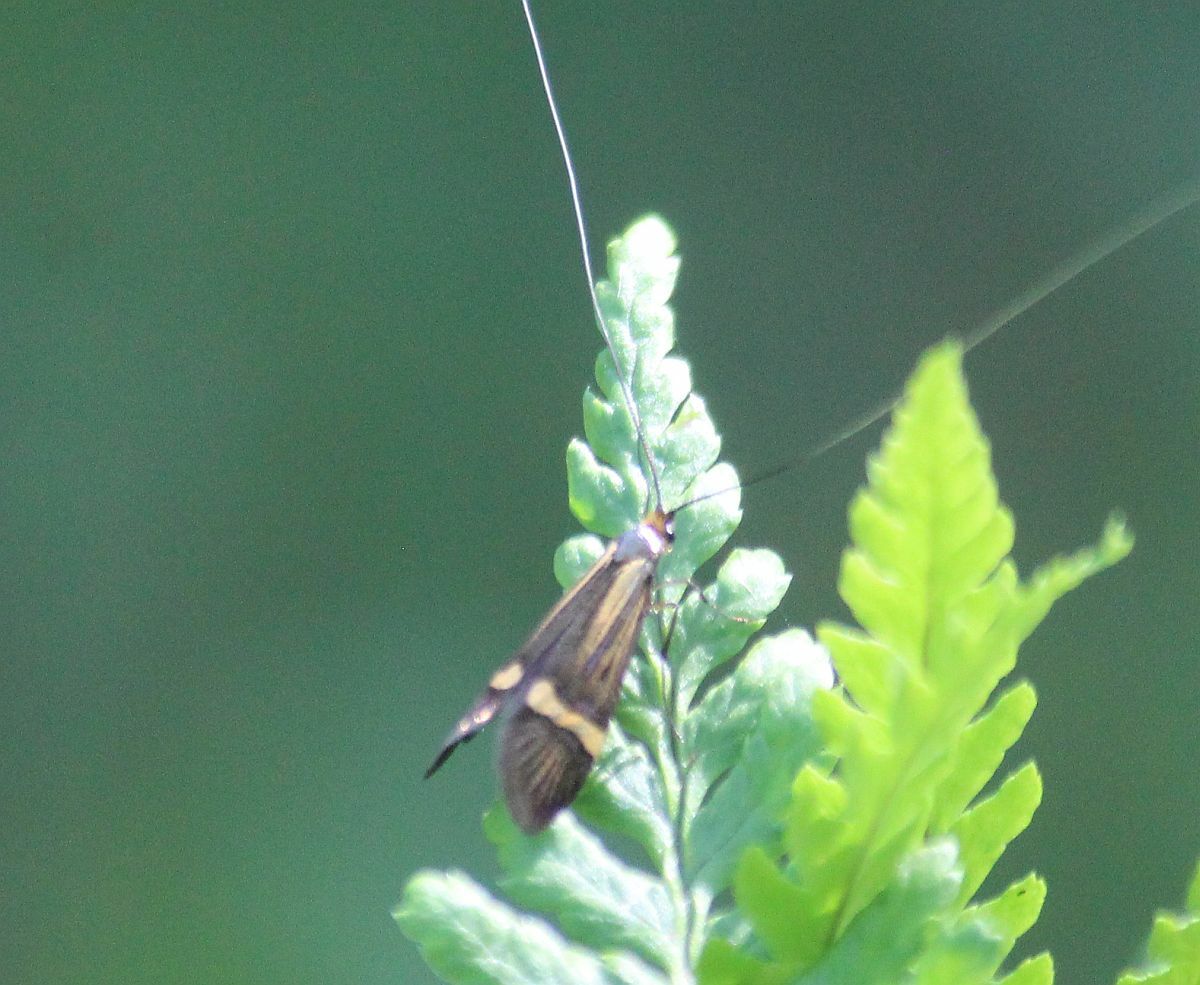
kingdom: Animalia
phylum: Arthropoda
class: Insecta
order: Lepidoptera
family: Adelidae
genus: Nemophora
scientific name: Nemophora degeerella
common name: Yellow-barred long-horn
